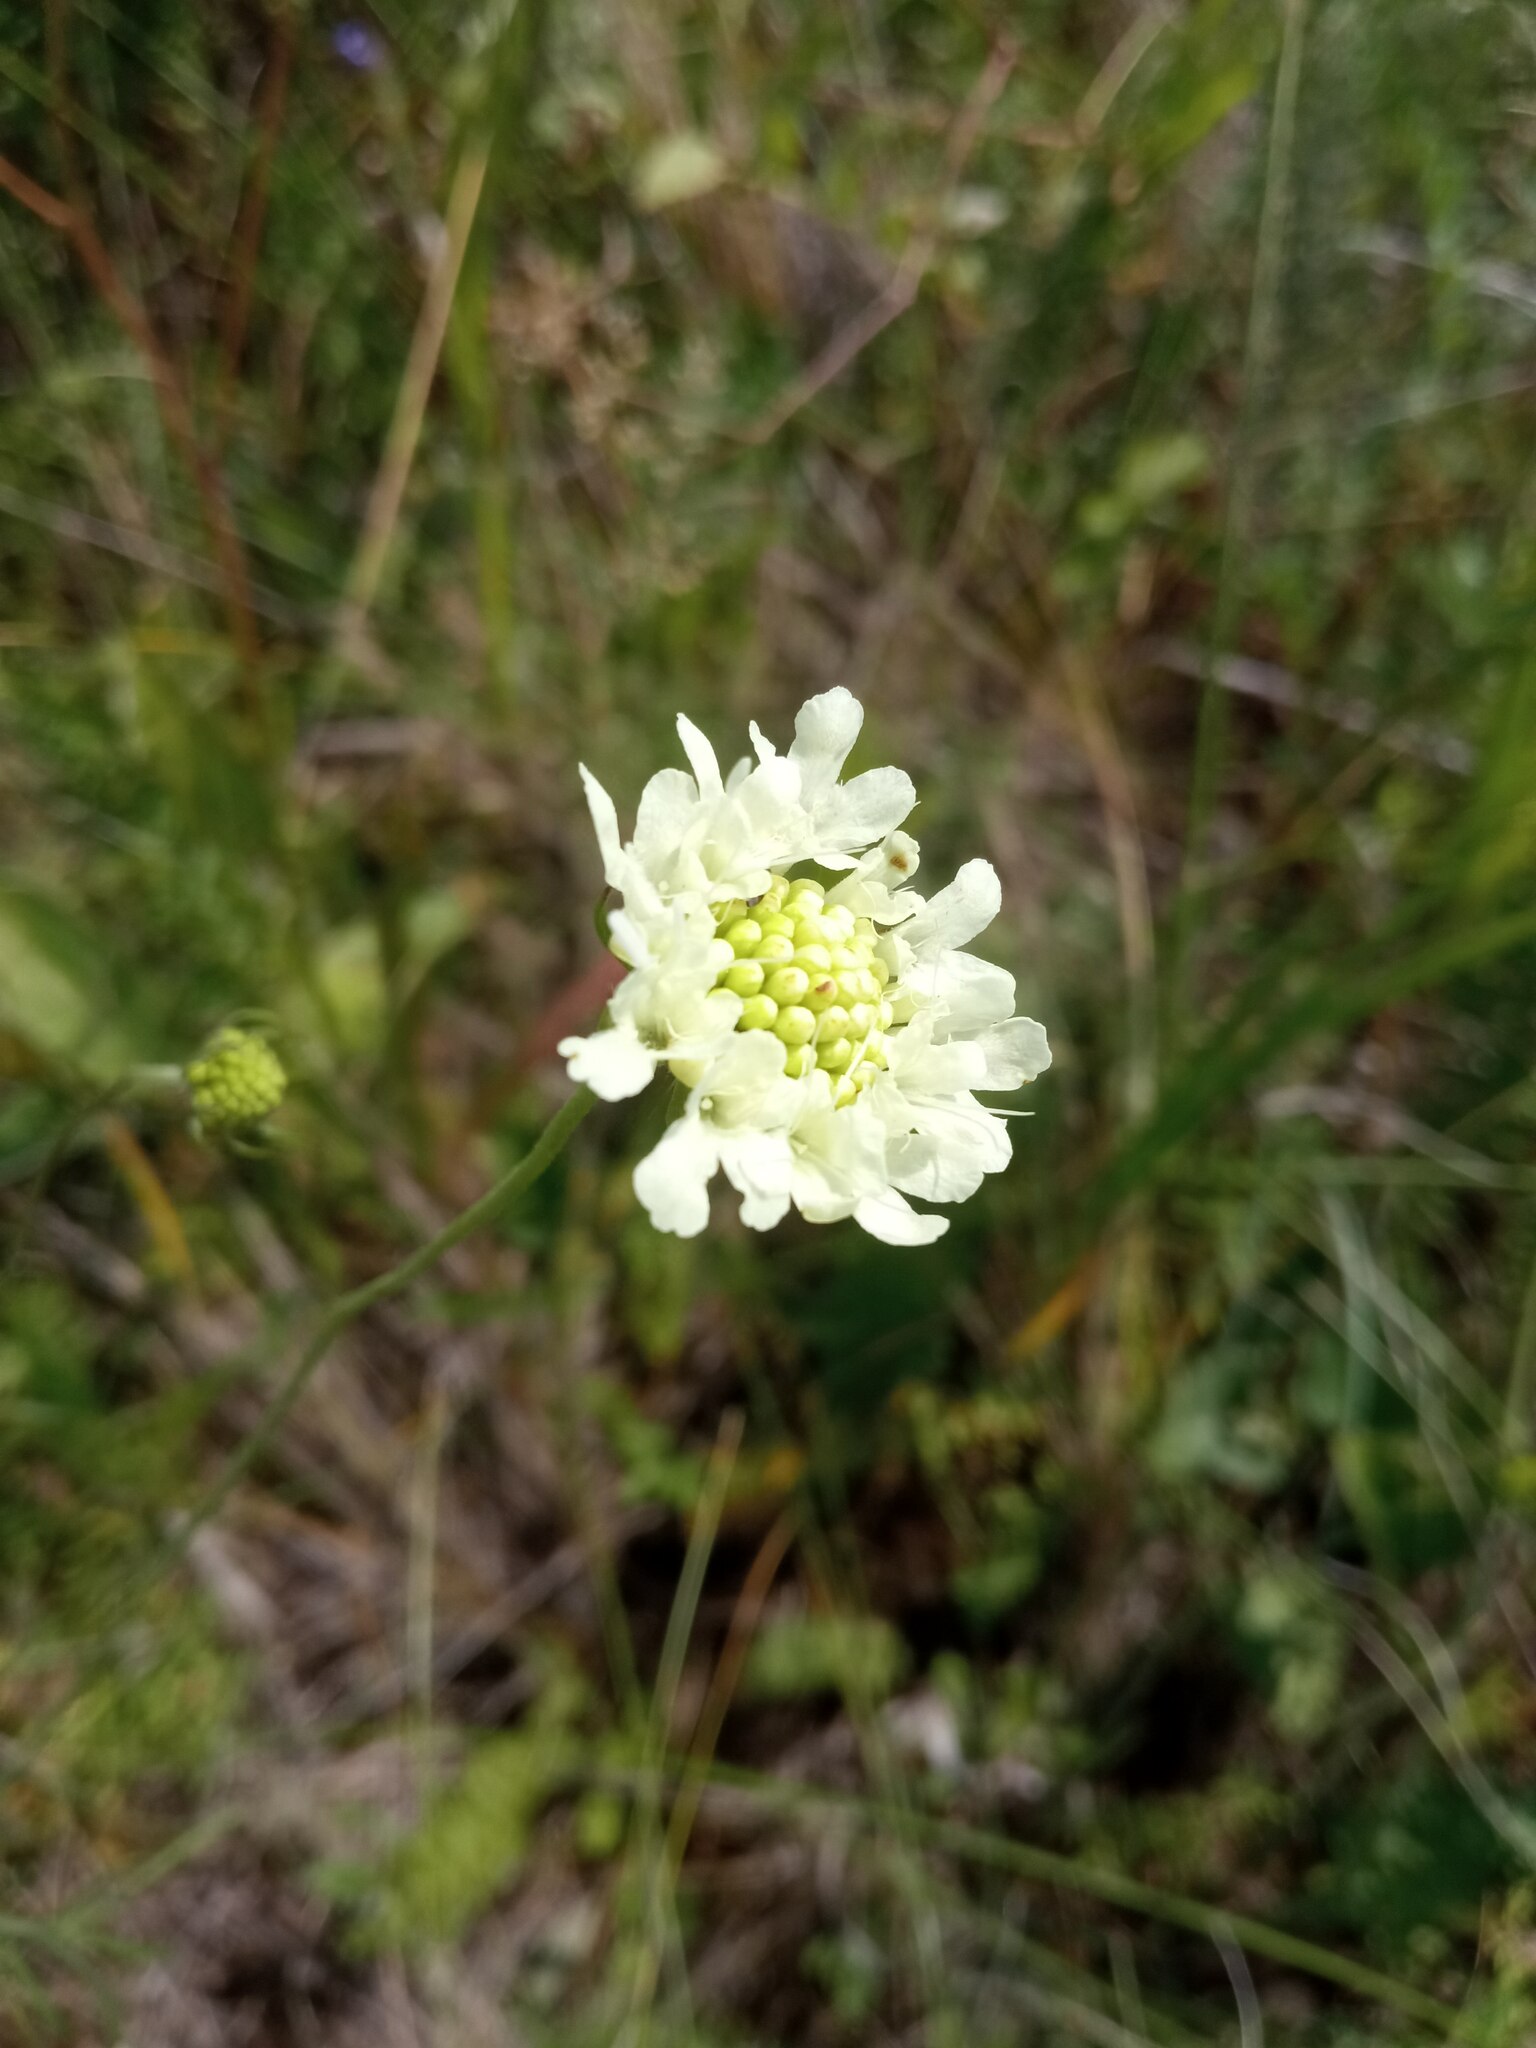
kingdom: Plantae
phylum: Tracheophyta
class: Magnoliopsida
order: Dipsacales
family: Caprifoliaceae
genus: Scabiosa
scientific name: Scabiosa ochroleuca
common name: Cream pincushions
